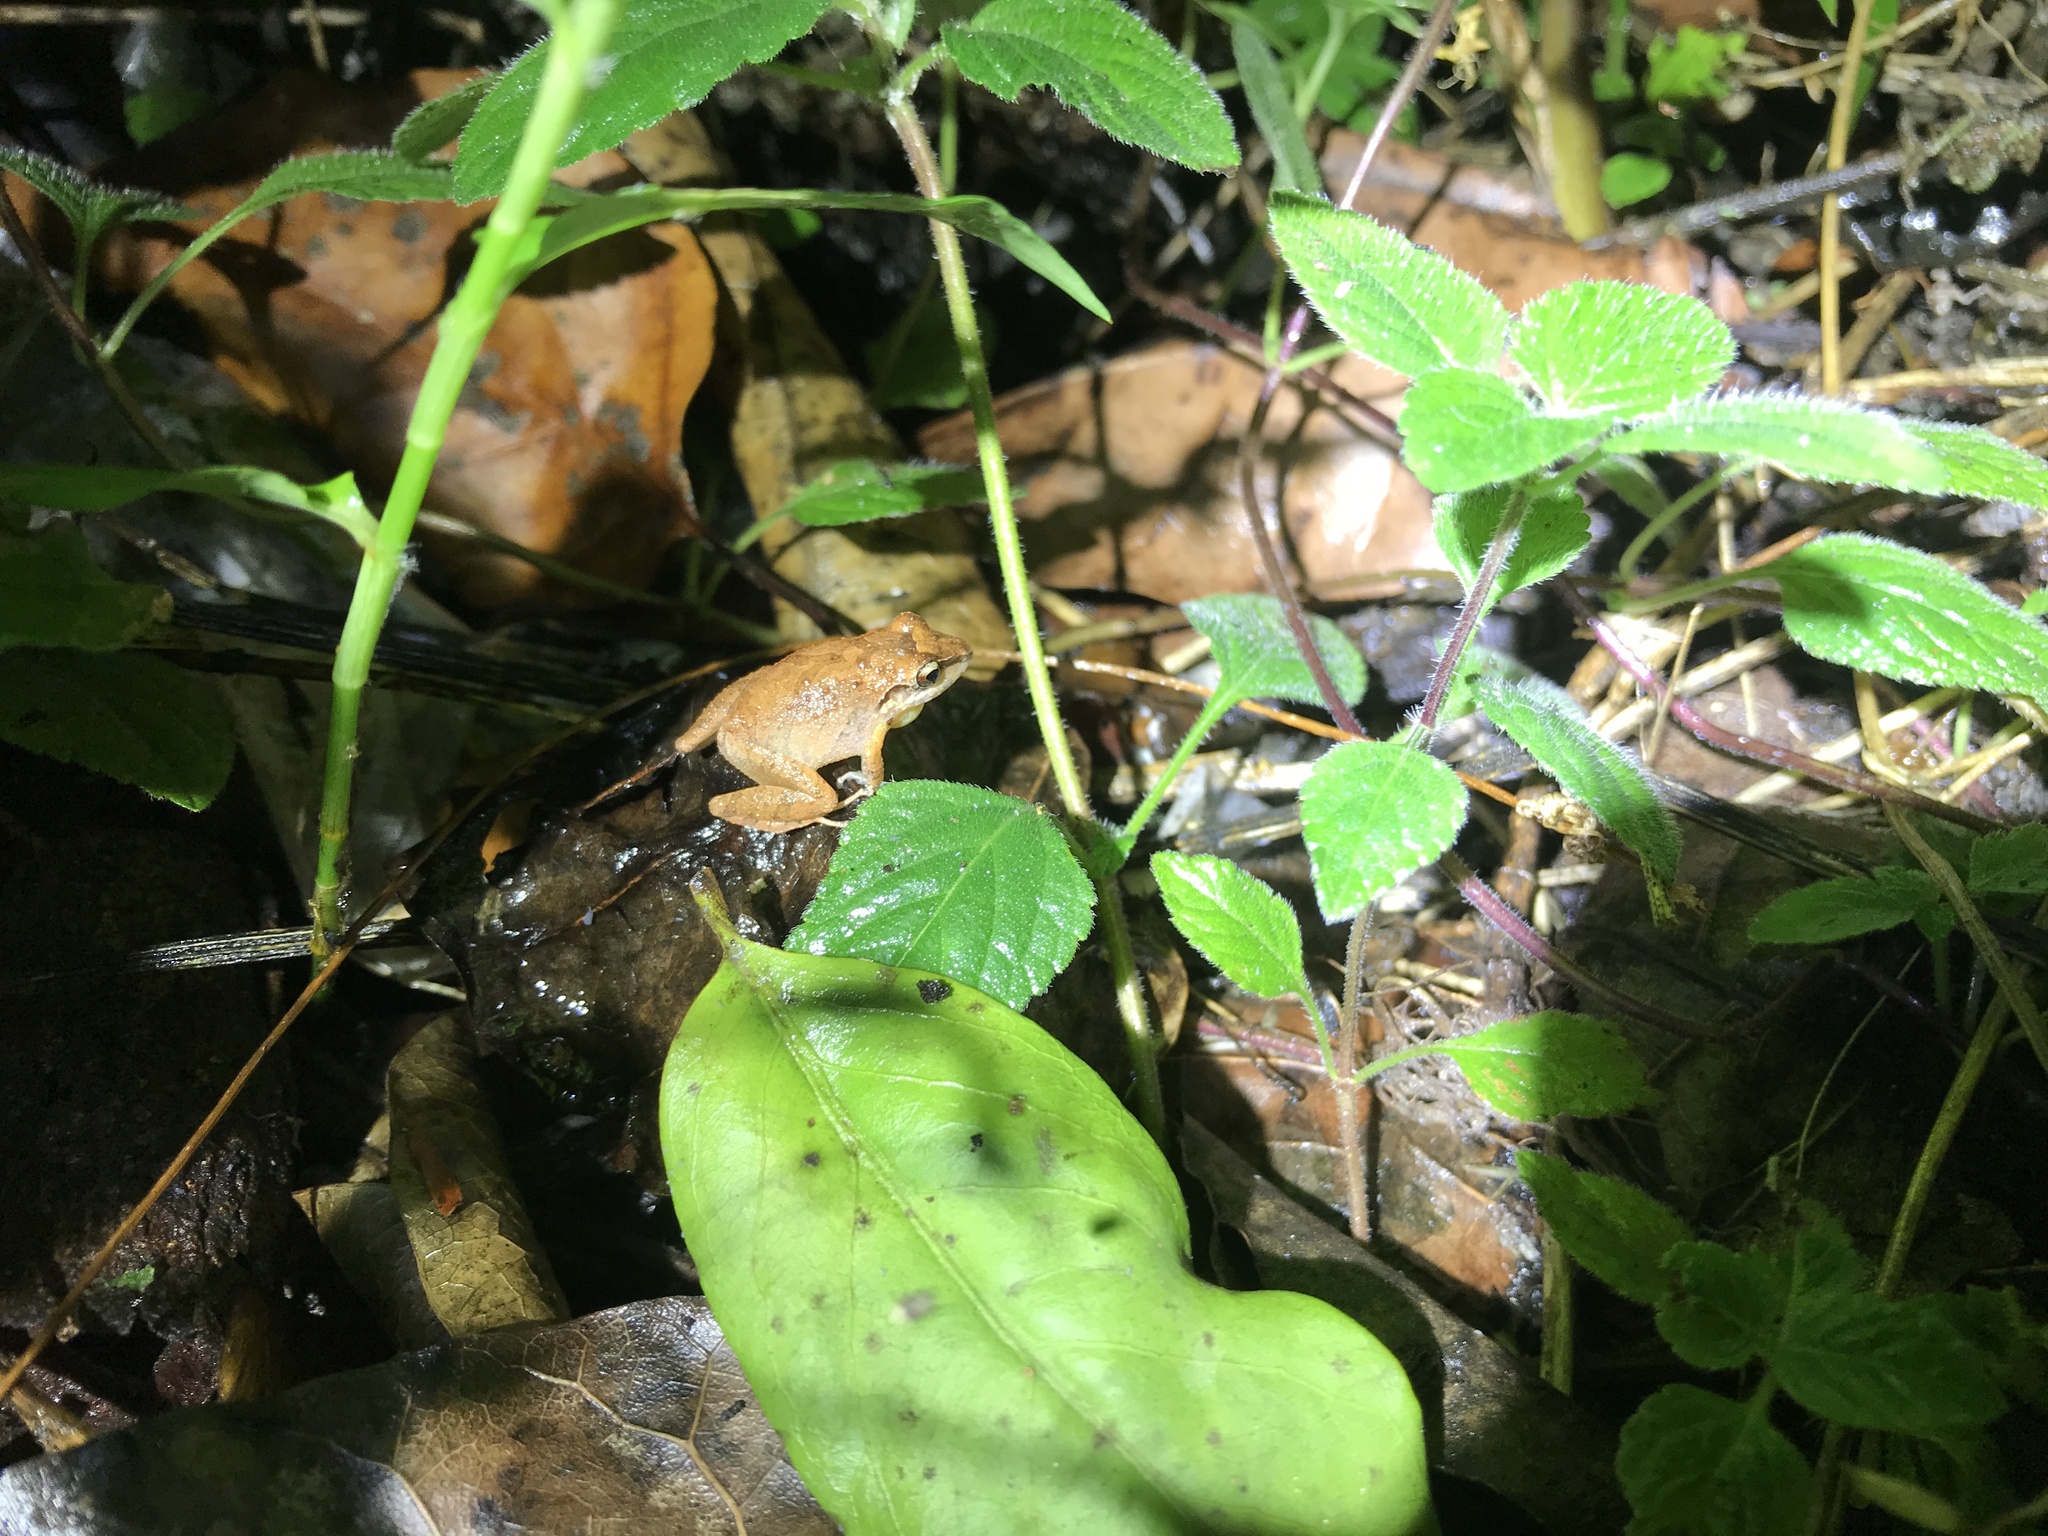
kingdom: Animalia
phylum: Chordata
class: Amphibia
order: Anura
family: Craugastoridae
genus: Pristimantis
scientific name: Pristimantis ramagii
